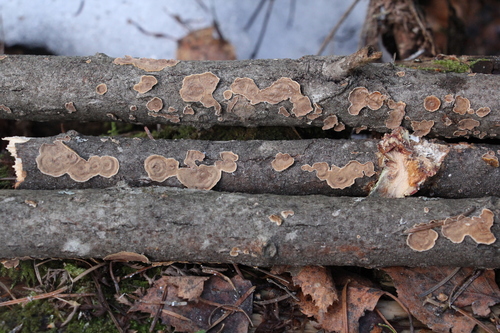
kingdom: Fungi
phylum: Basidiomycota
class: Agaricomycetes
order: Hymenochaetales
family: Hymenochaetaceae
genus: Hydnoporia
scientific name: Hydnoporia tabacina
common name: Willow glue
